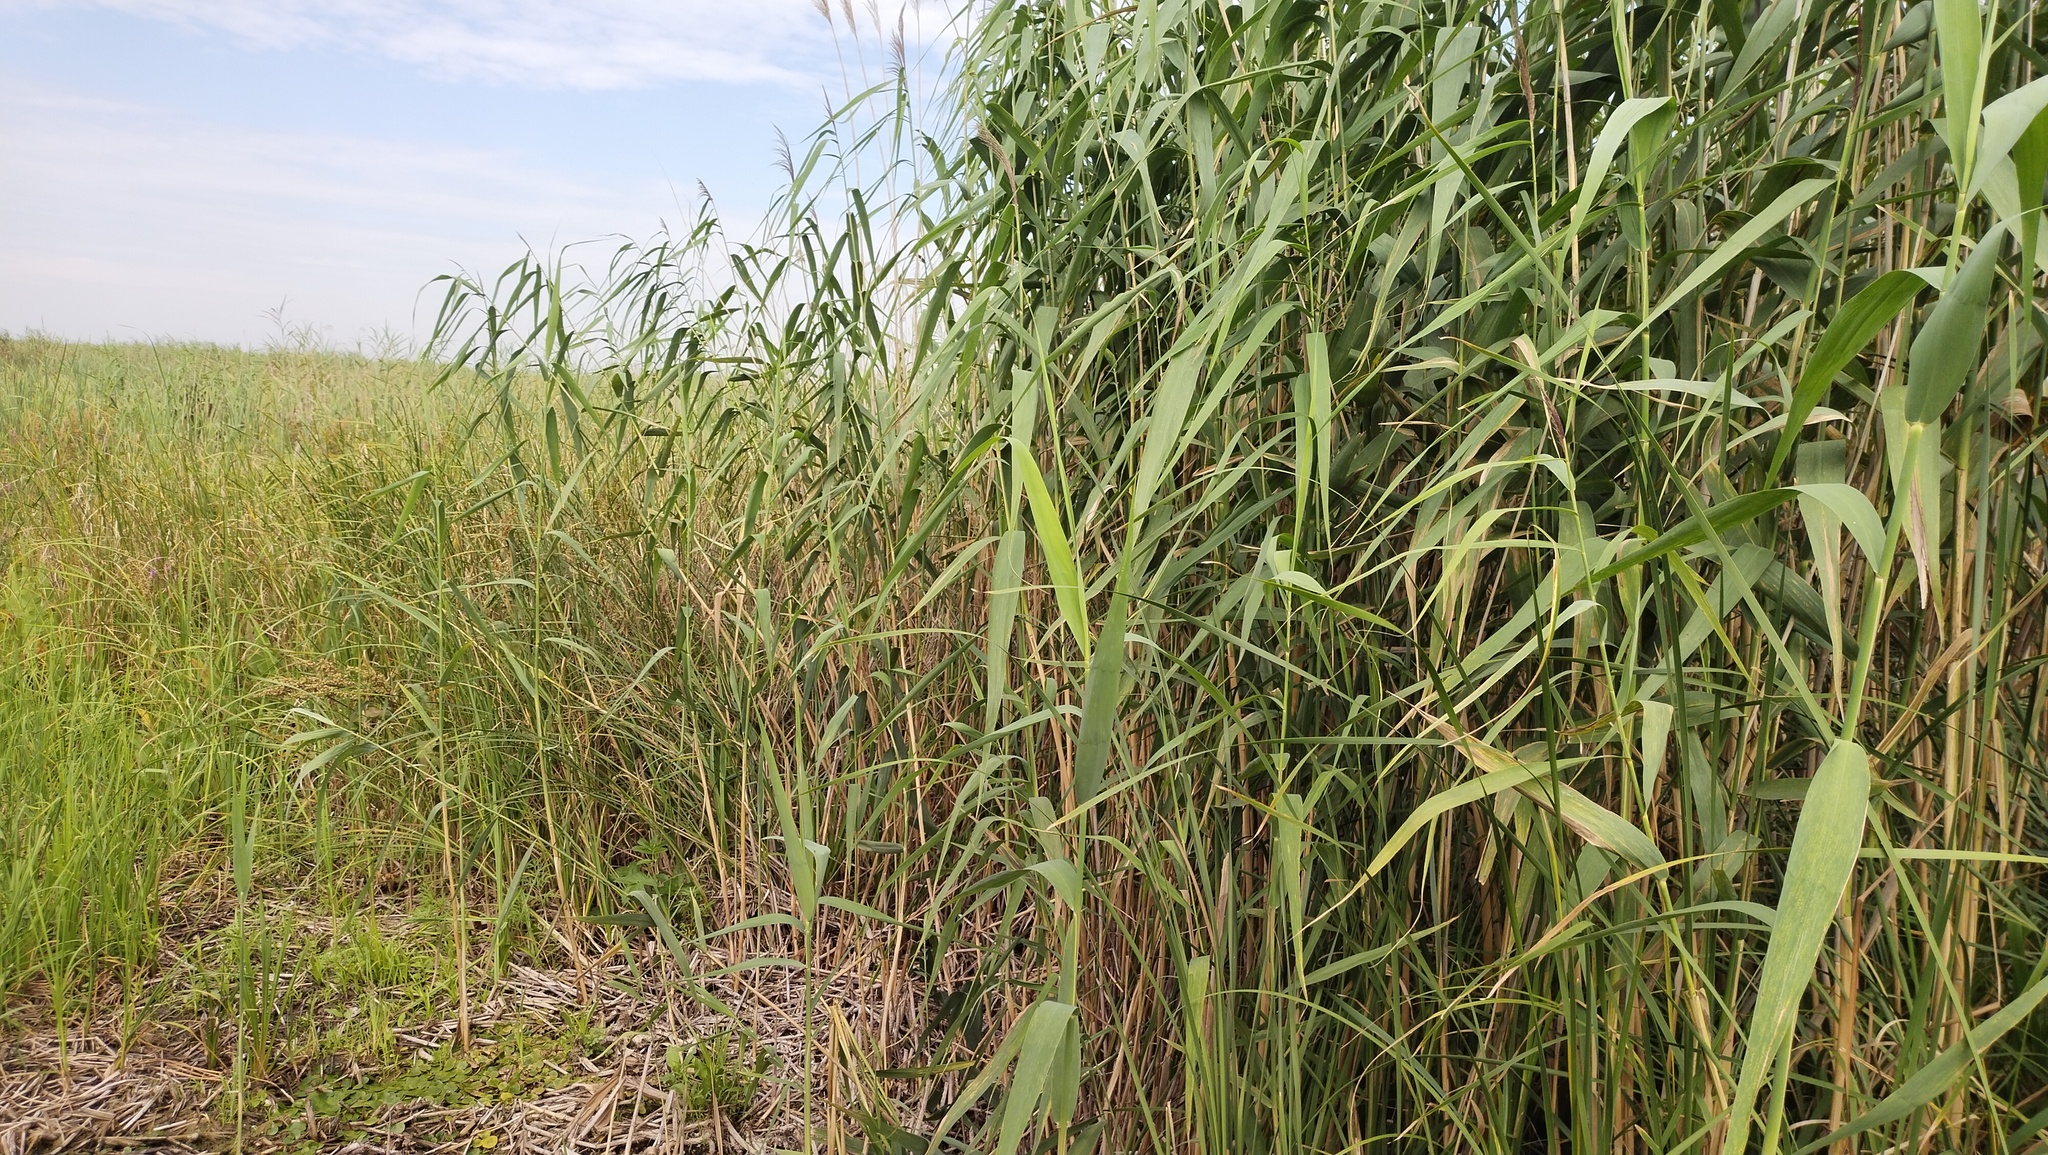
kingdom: Plantae
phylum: Tracheophyta
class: Liliopsida
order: Poales
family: Poaceae
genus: Phragmites
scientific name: Phragmites australis
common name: Common reed
